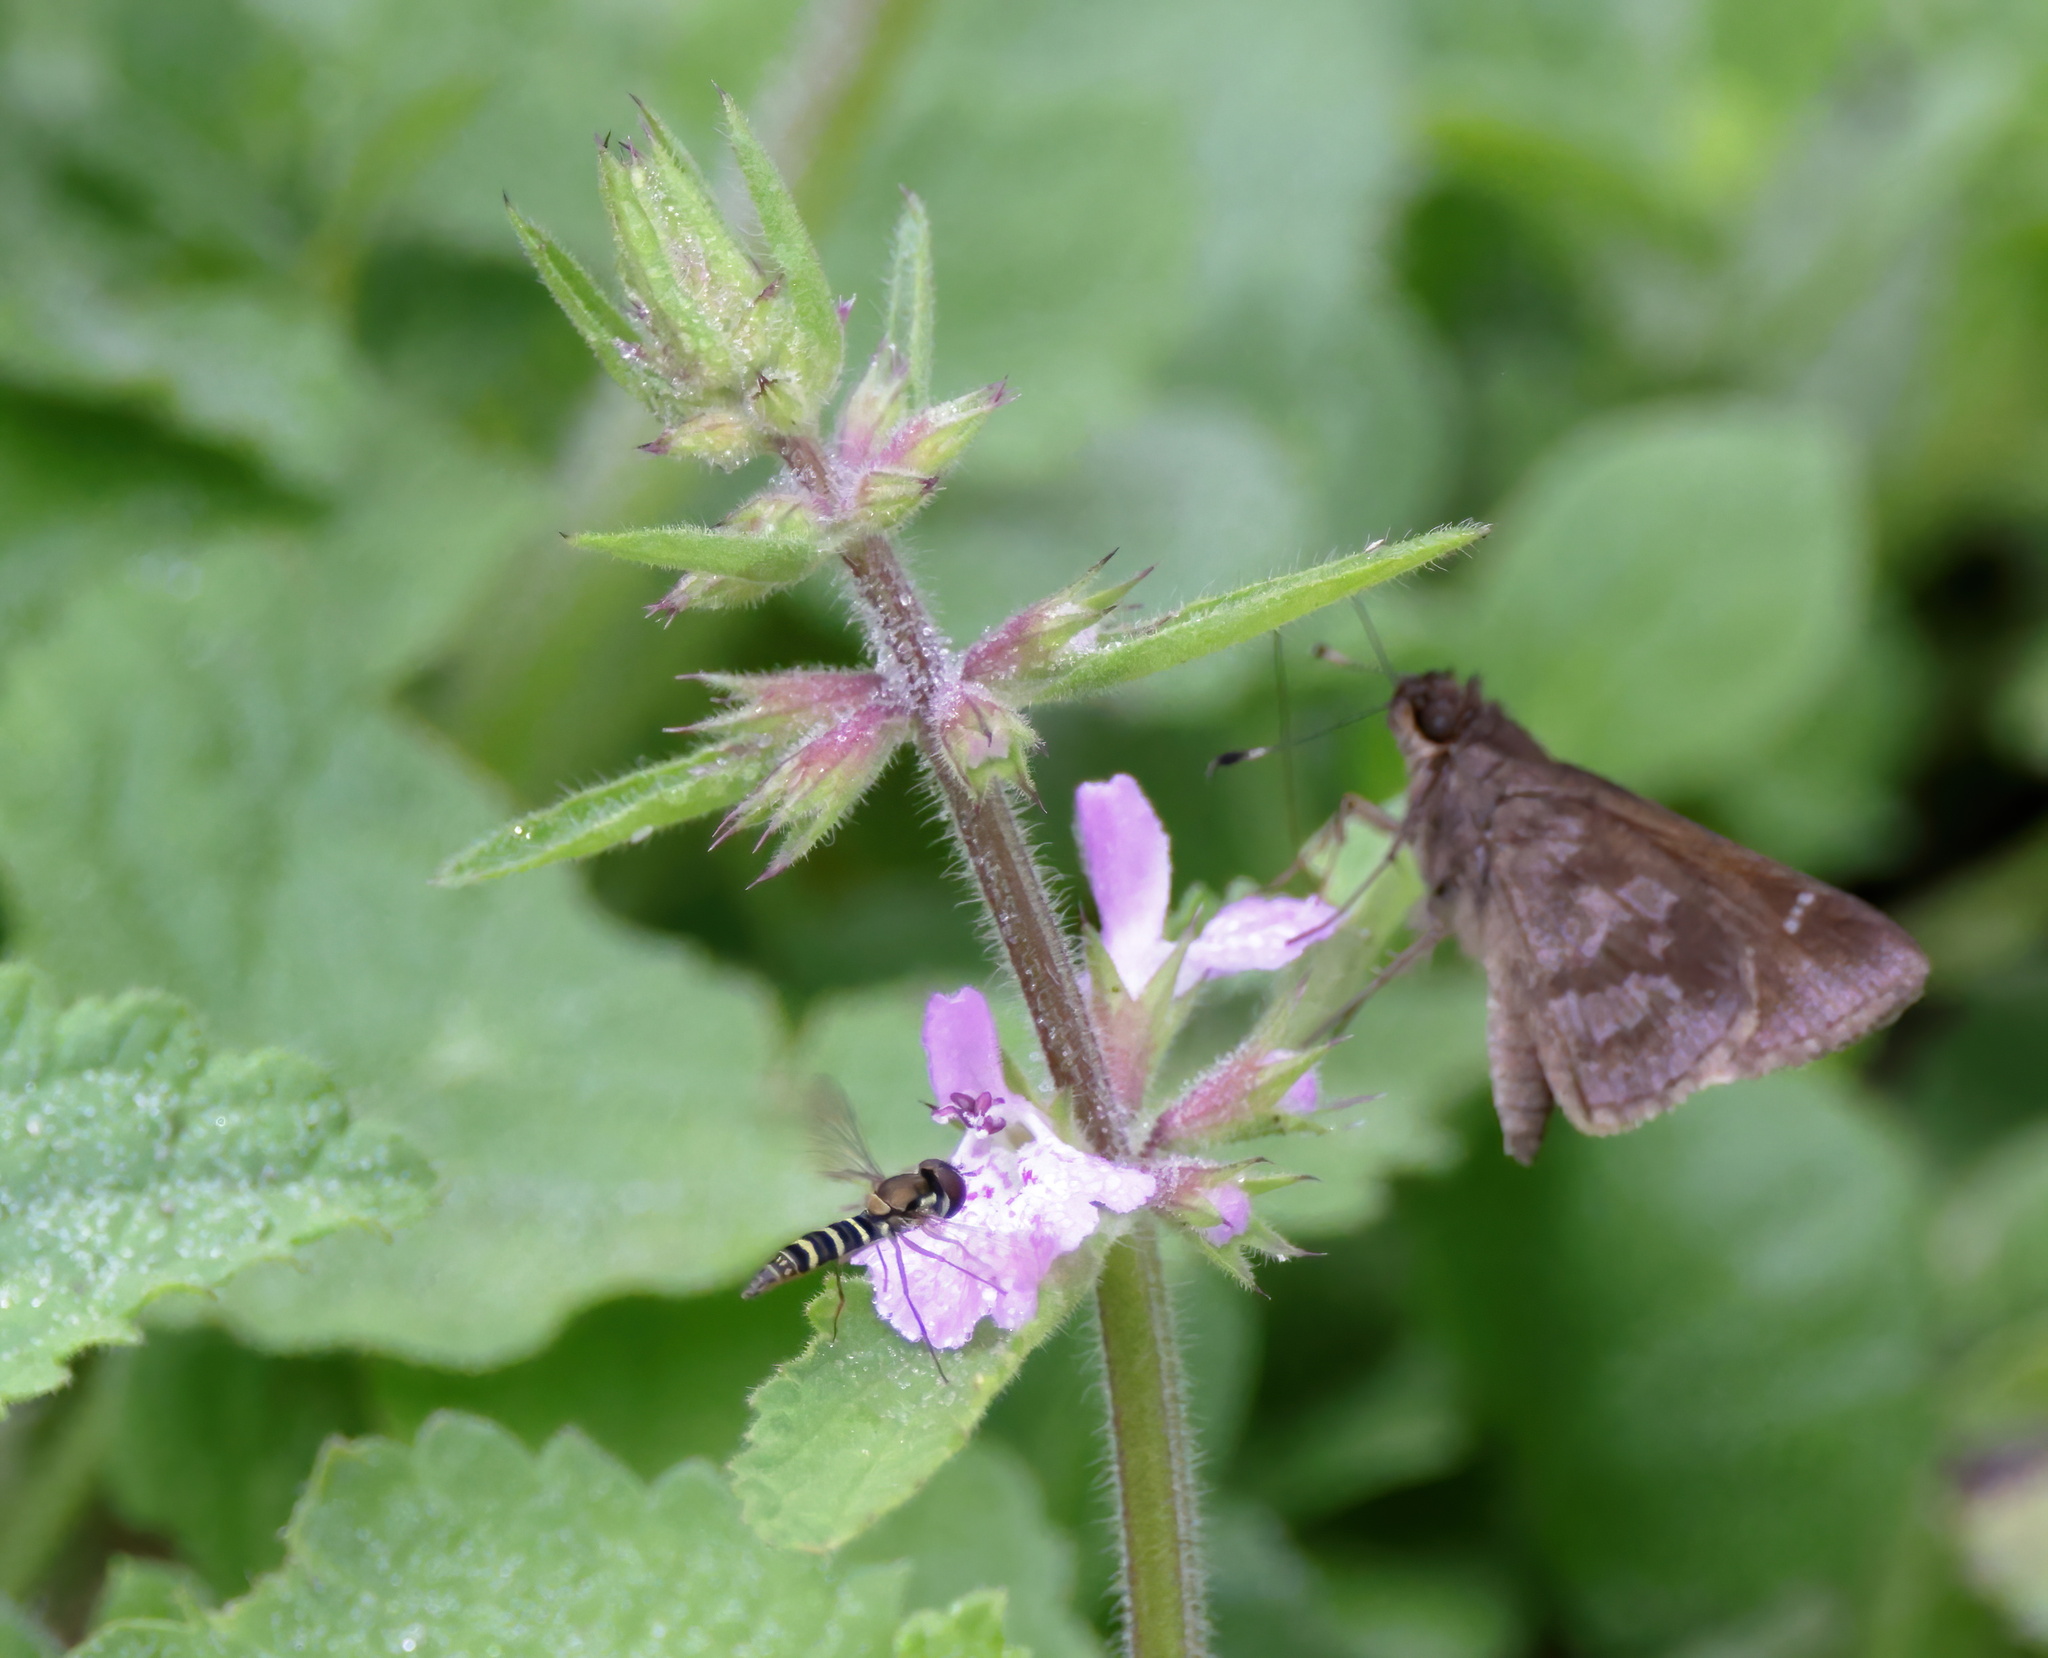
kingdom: Animalia
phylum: Arthropoda
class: Insecta
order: Diptera
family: Syrphidae
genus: Fazia
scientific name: Fazia micrura
